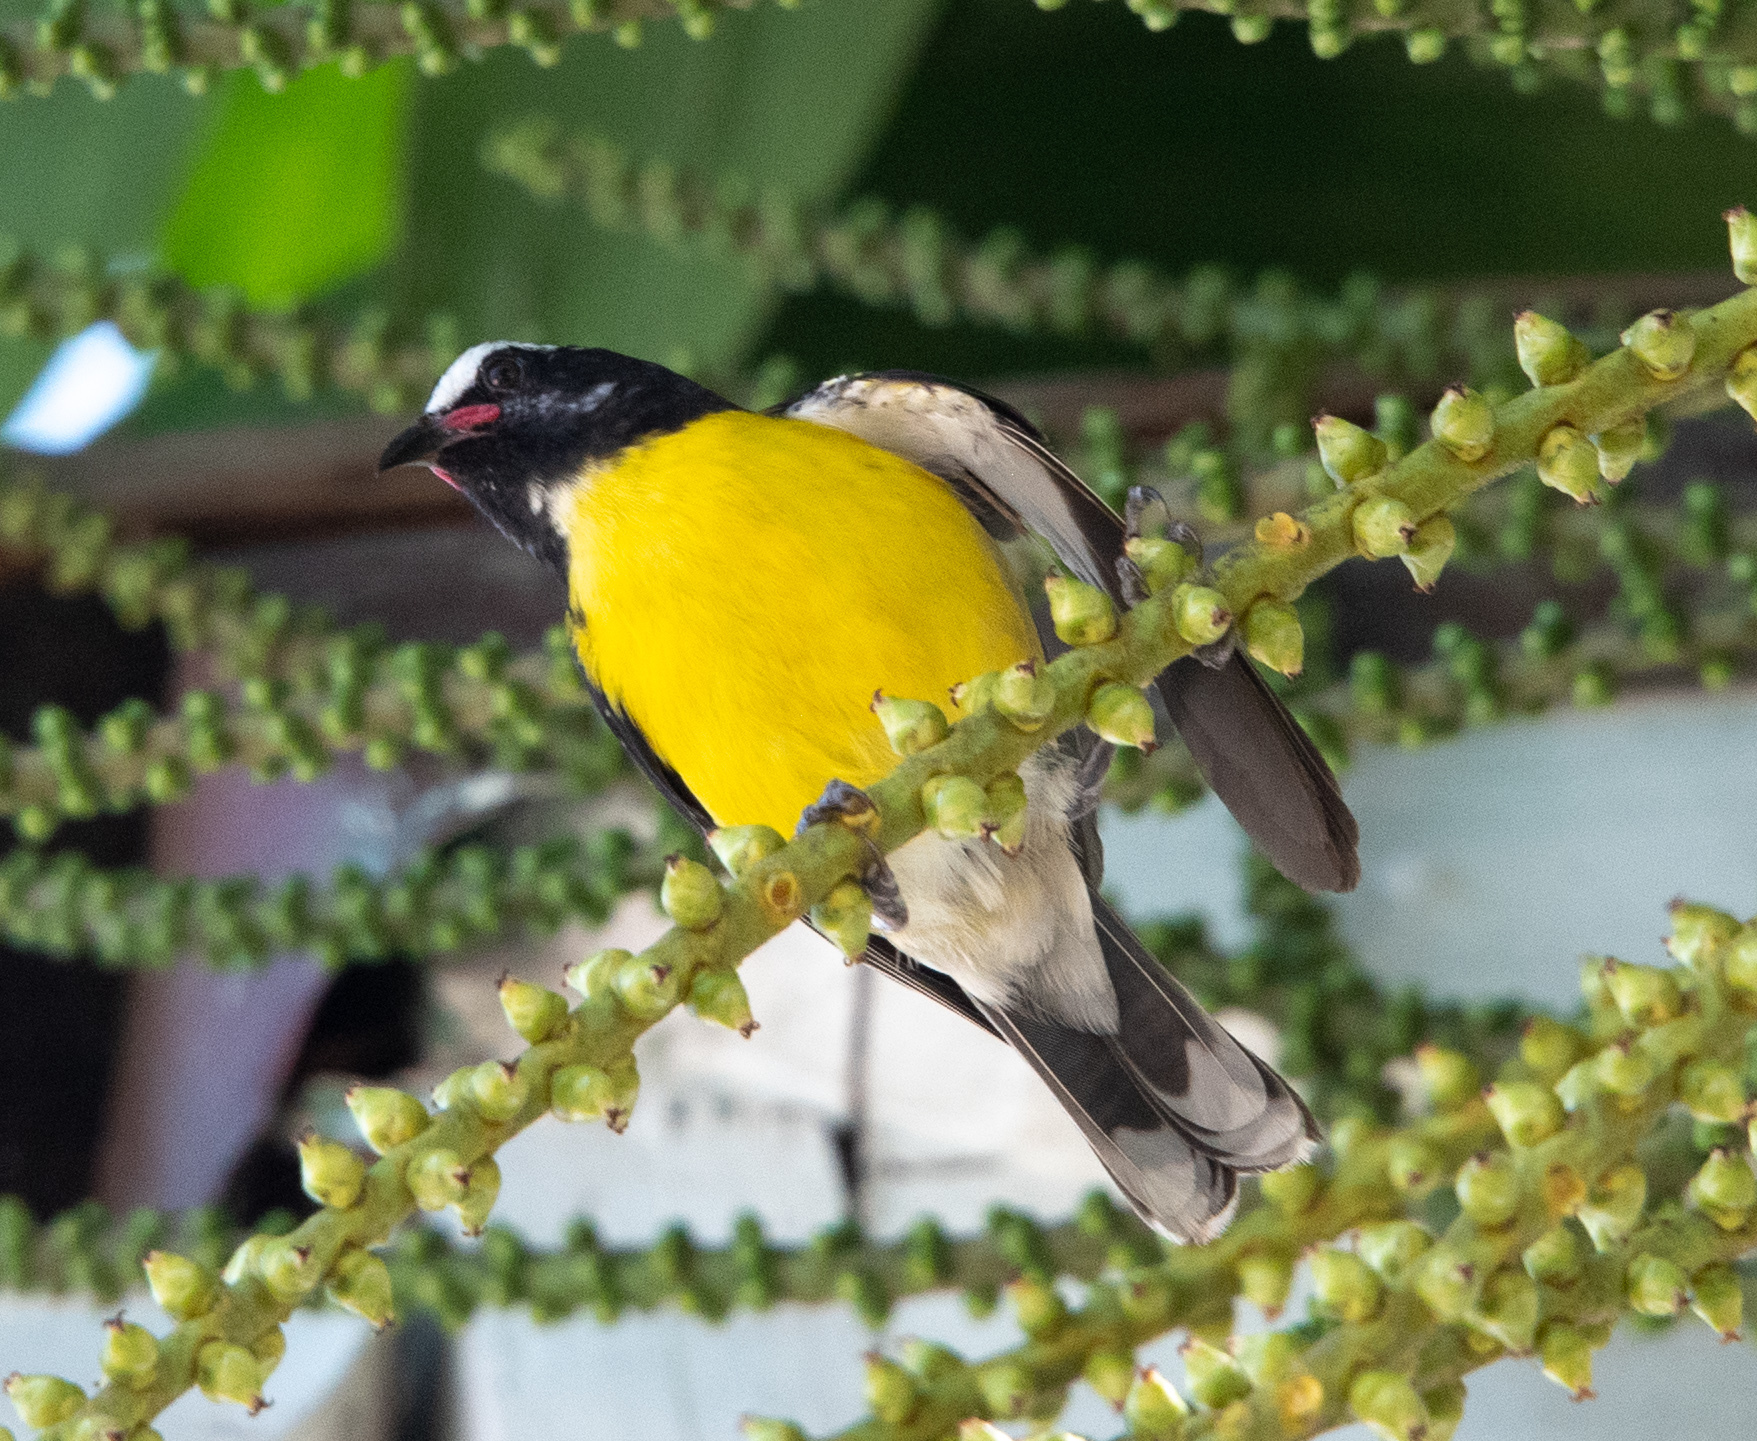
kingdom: Animalia
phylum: Chordata
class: Aves
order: Passeriformes
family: Thraupidae
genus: Coereba
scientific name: Coereba flaveola
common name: Bananaquit
